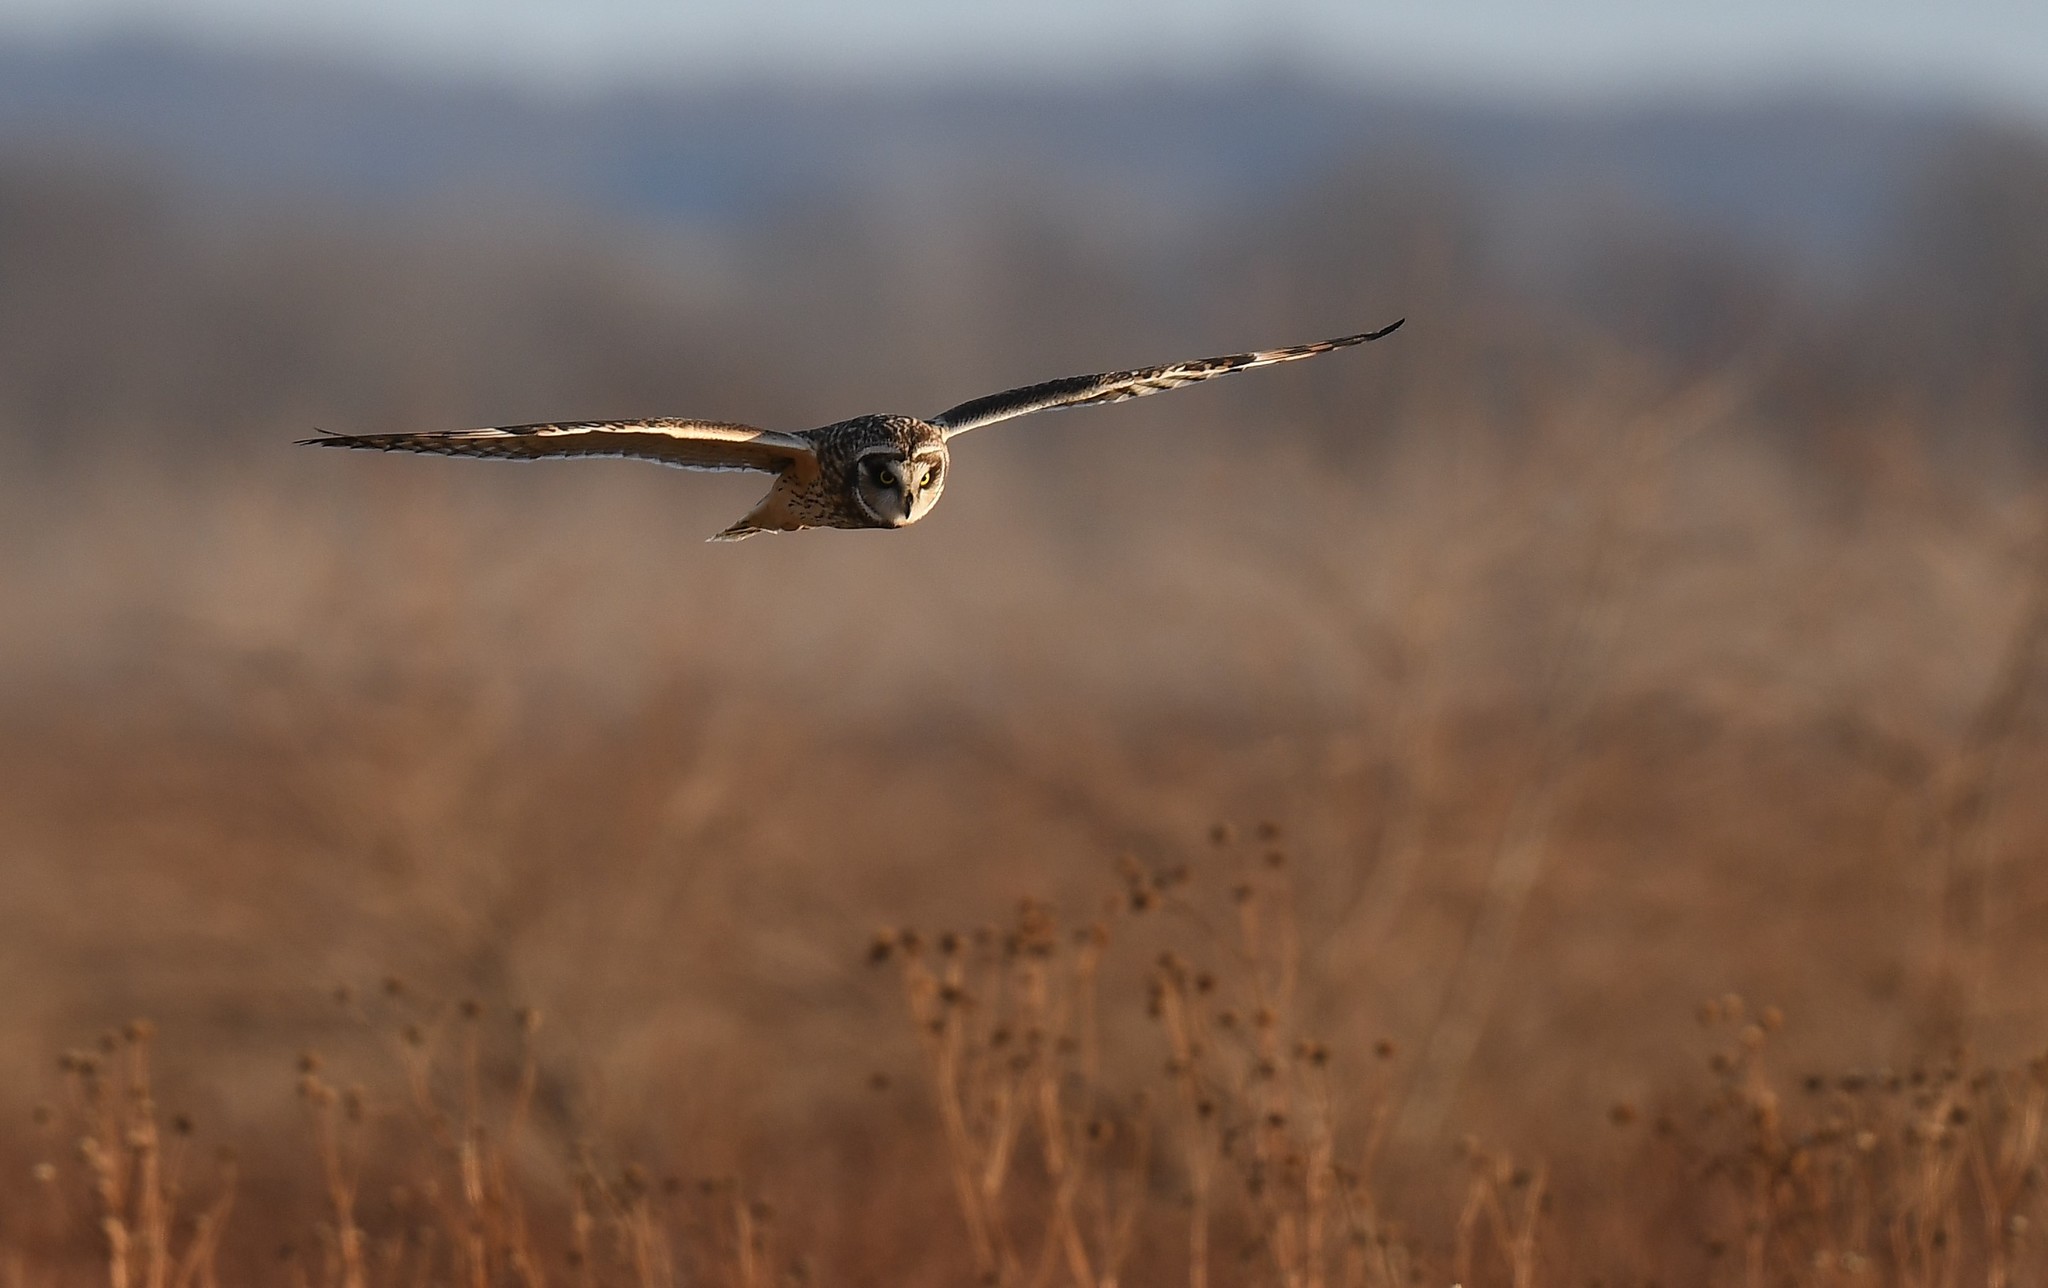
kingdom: Animalia
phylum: Chordata
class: Aves
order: Strigiformes
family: Strigidae
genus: Asio
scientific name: Asio flammeus
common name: Short-eared owl
